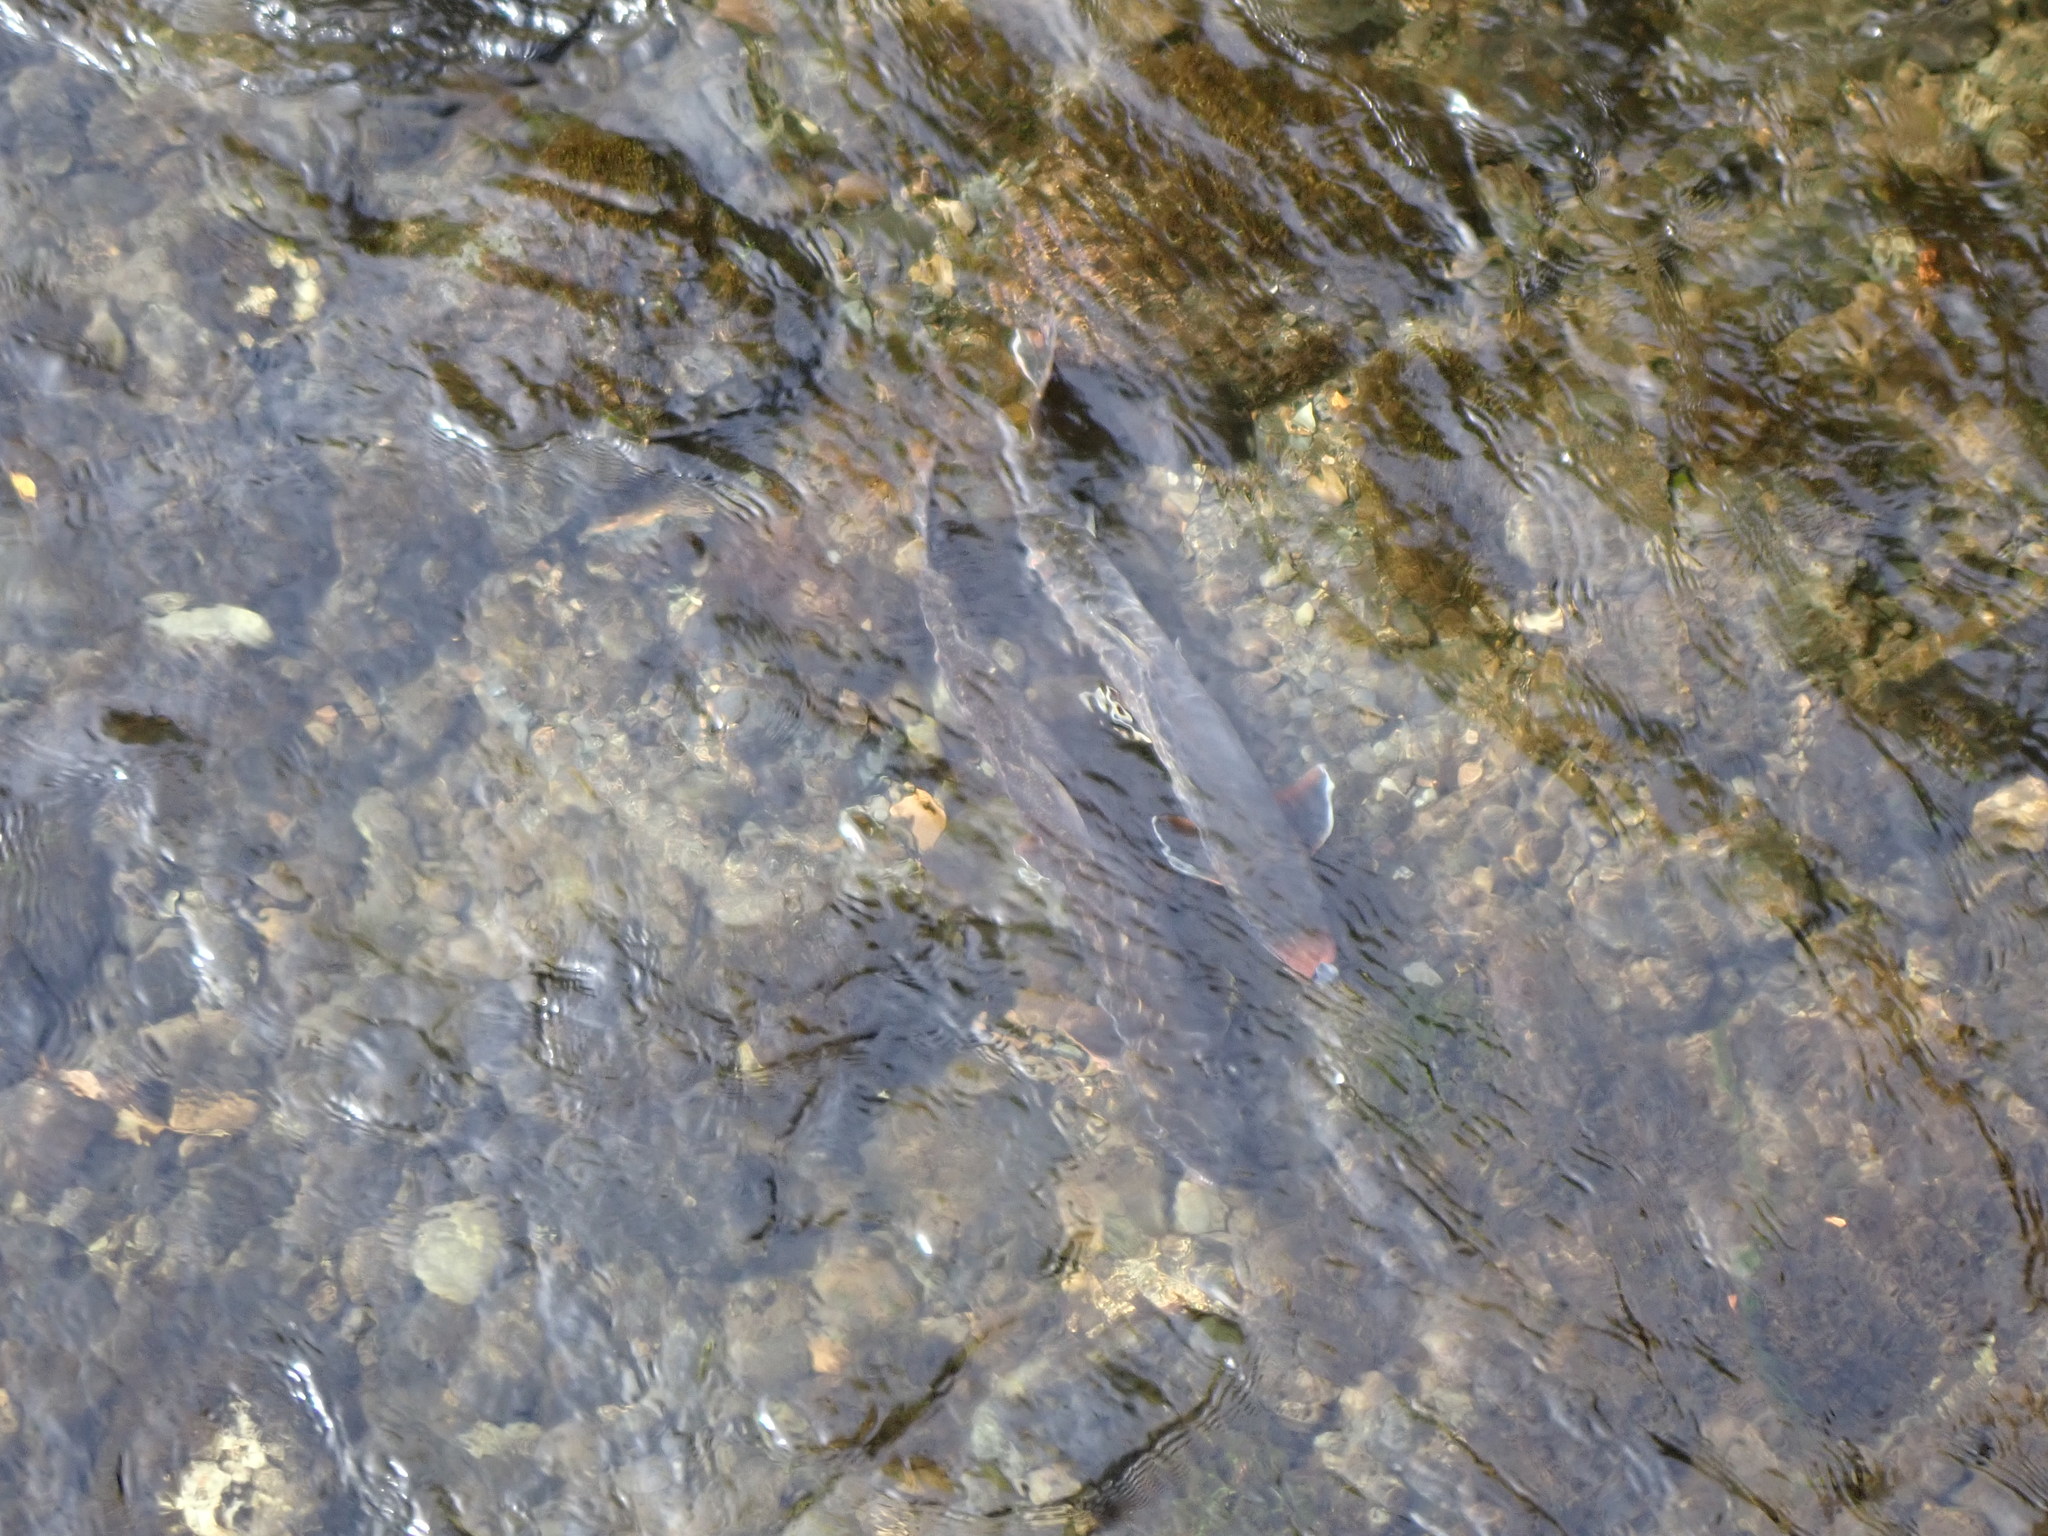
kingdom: Animalia
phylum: Chordata
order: Salmoniformes
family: Salmonidae
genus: Salvelinus
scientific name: Salvelinus malma
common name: Dolly varden charr
